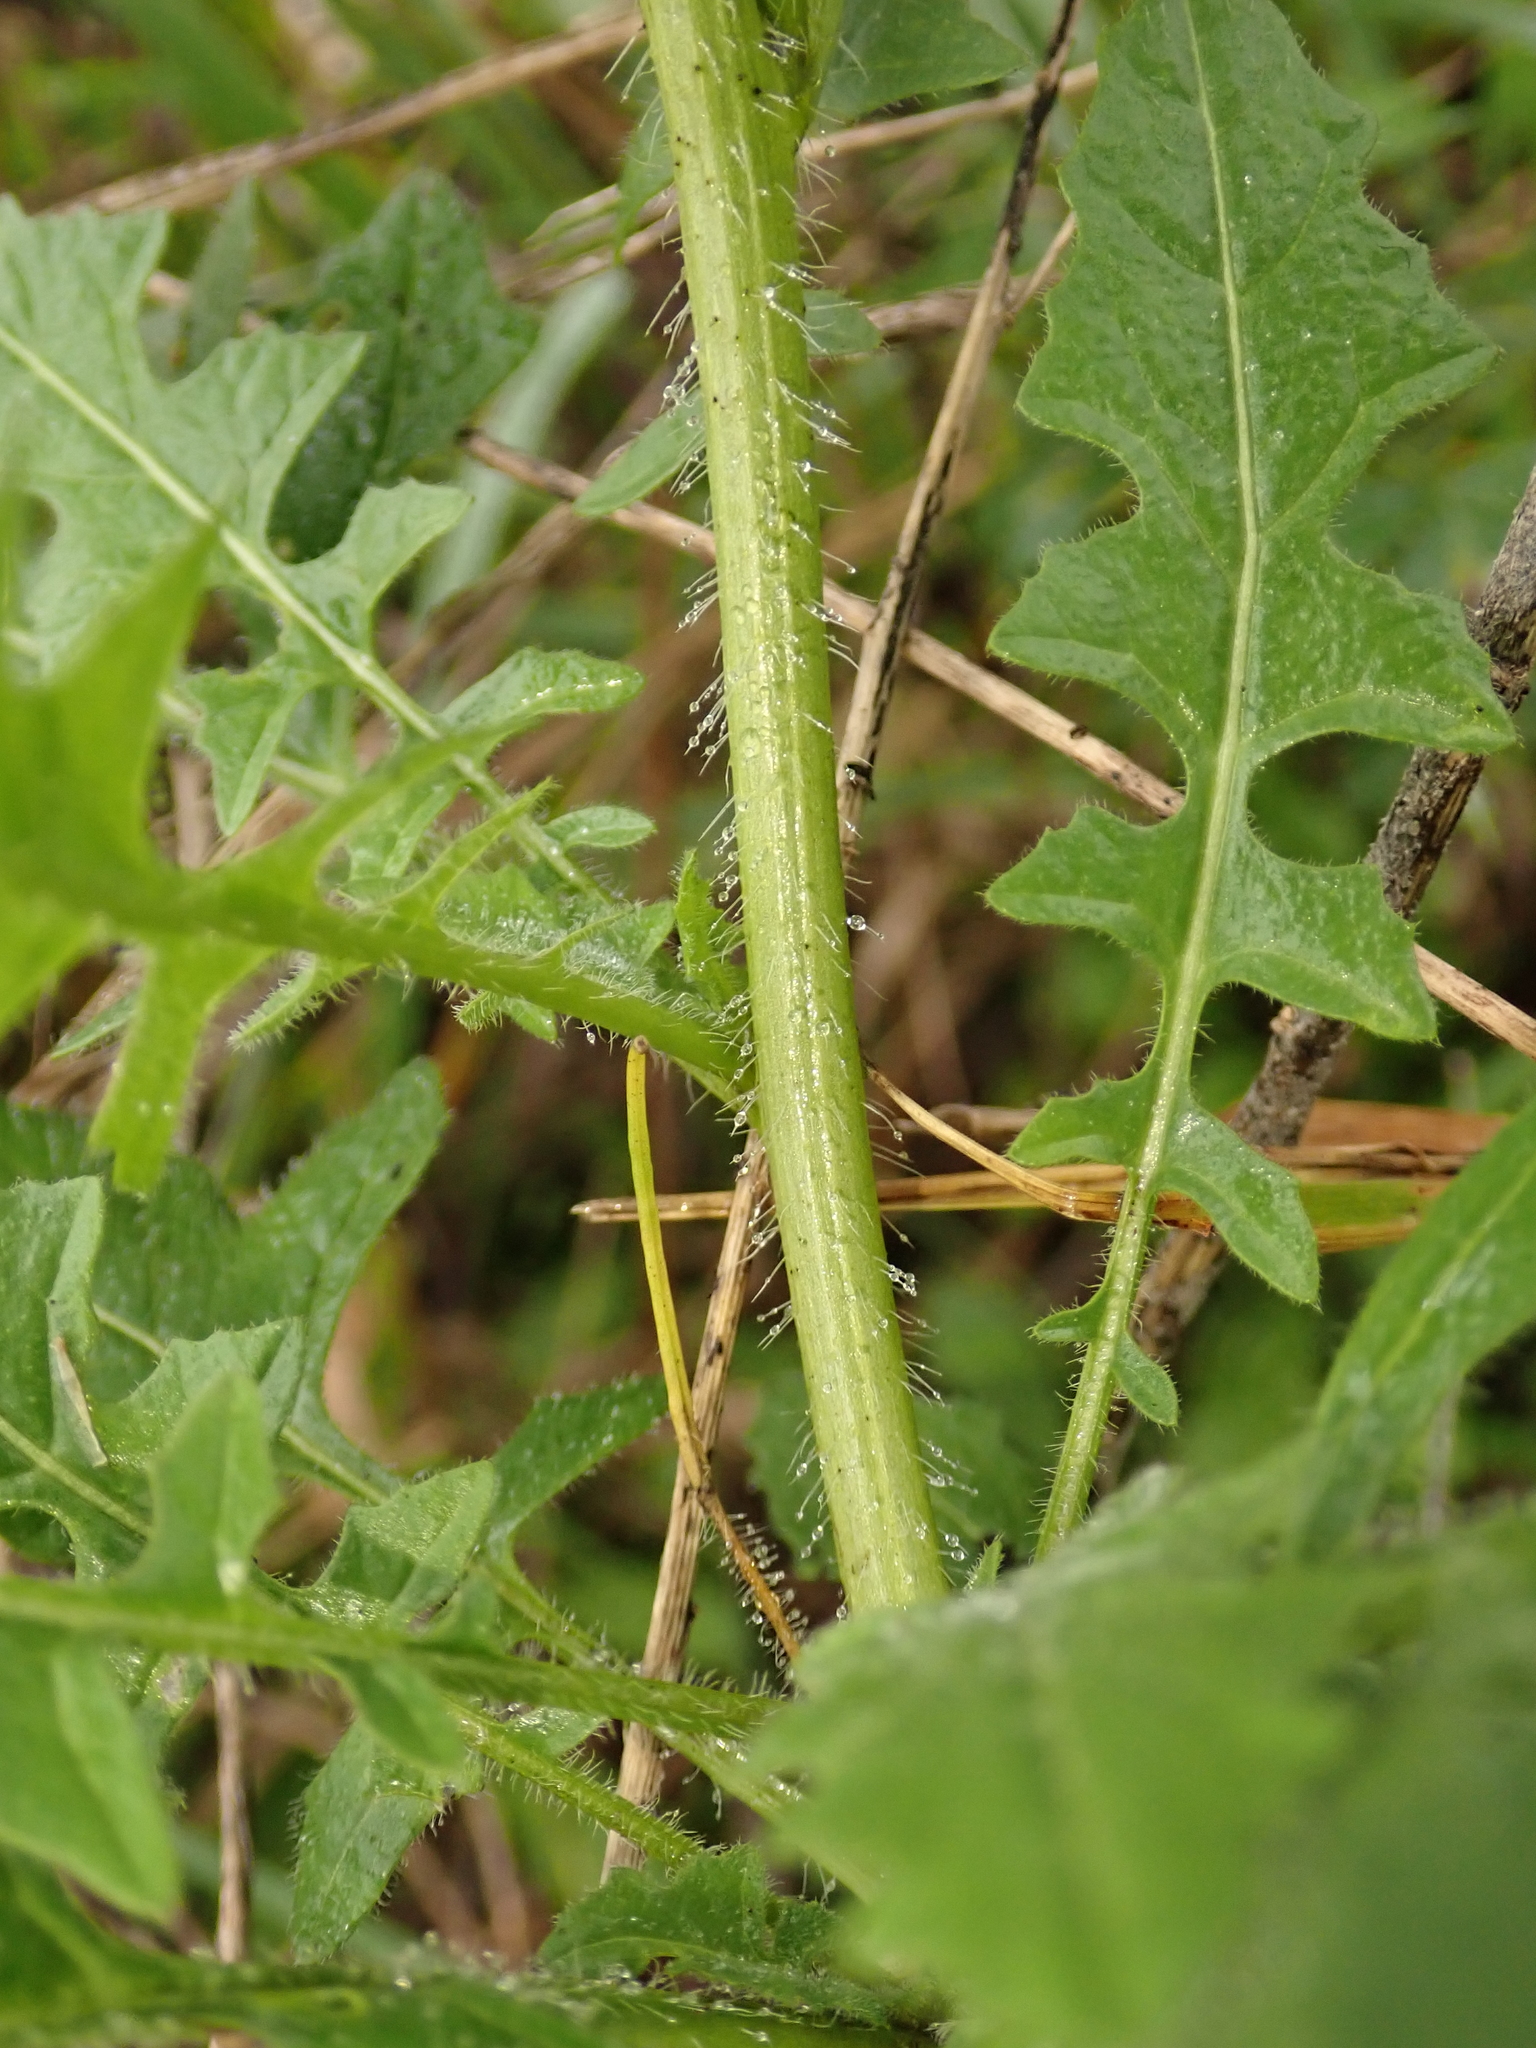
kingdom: Plantae
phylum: Tracheophyta
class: Magnoliopsida
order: Brassicales
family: Brassicaceae
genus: Sisymbrium
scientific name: Sisymbrium loeselii
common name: False london-rocket
